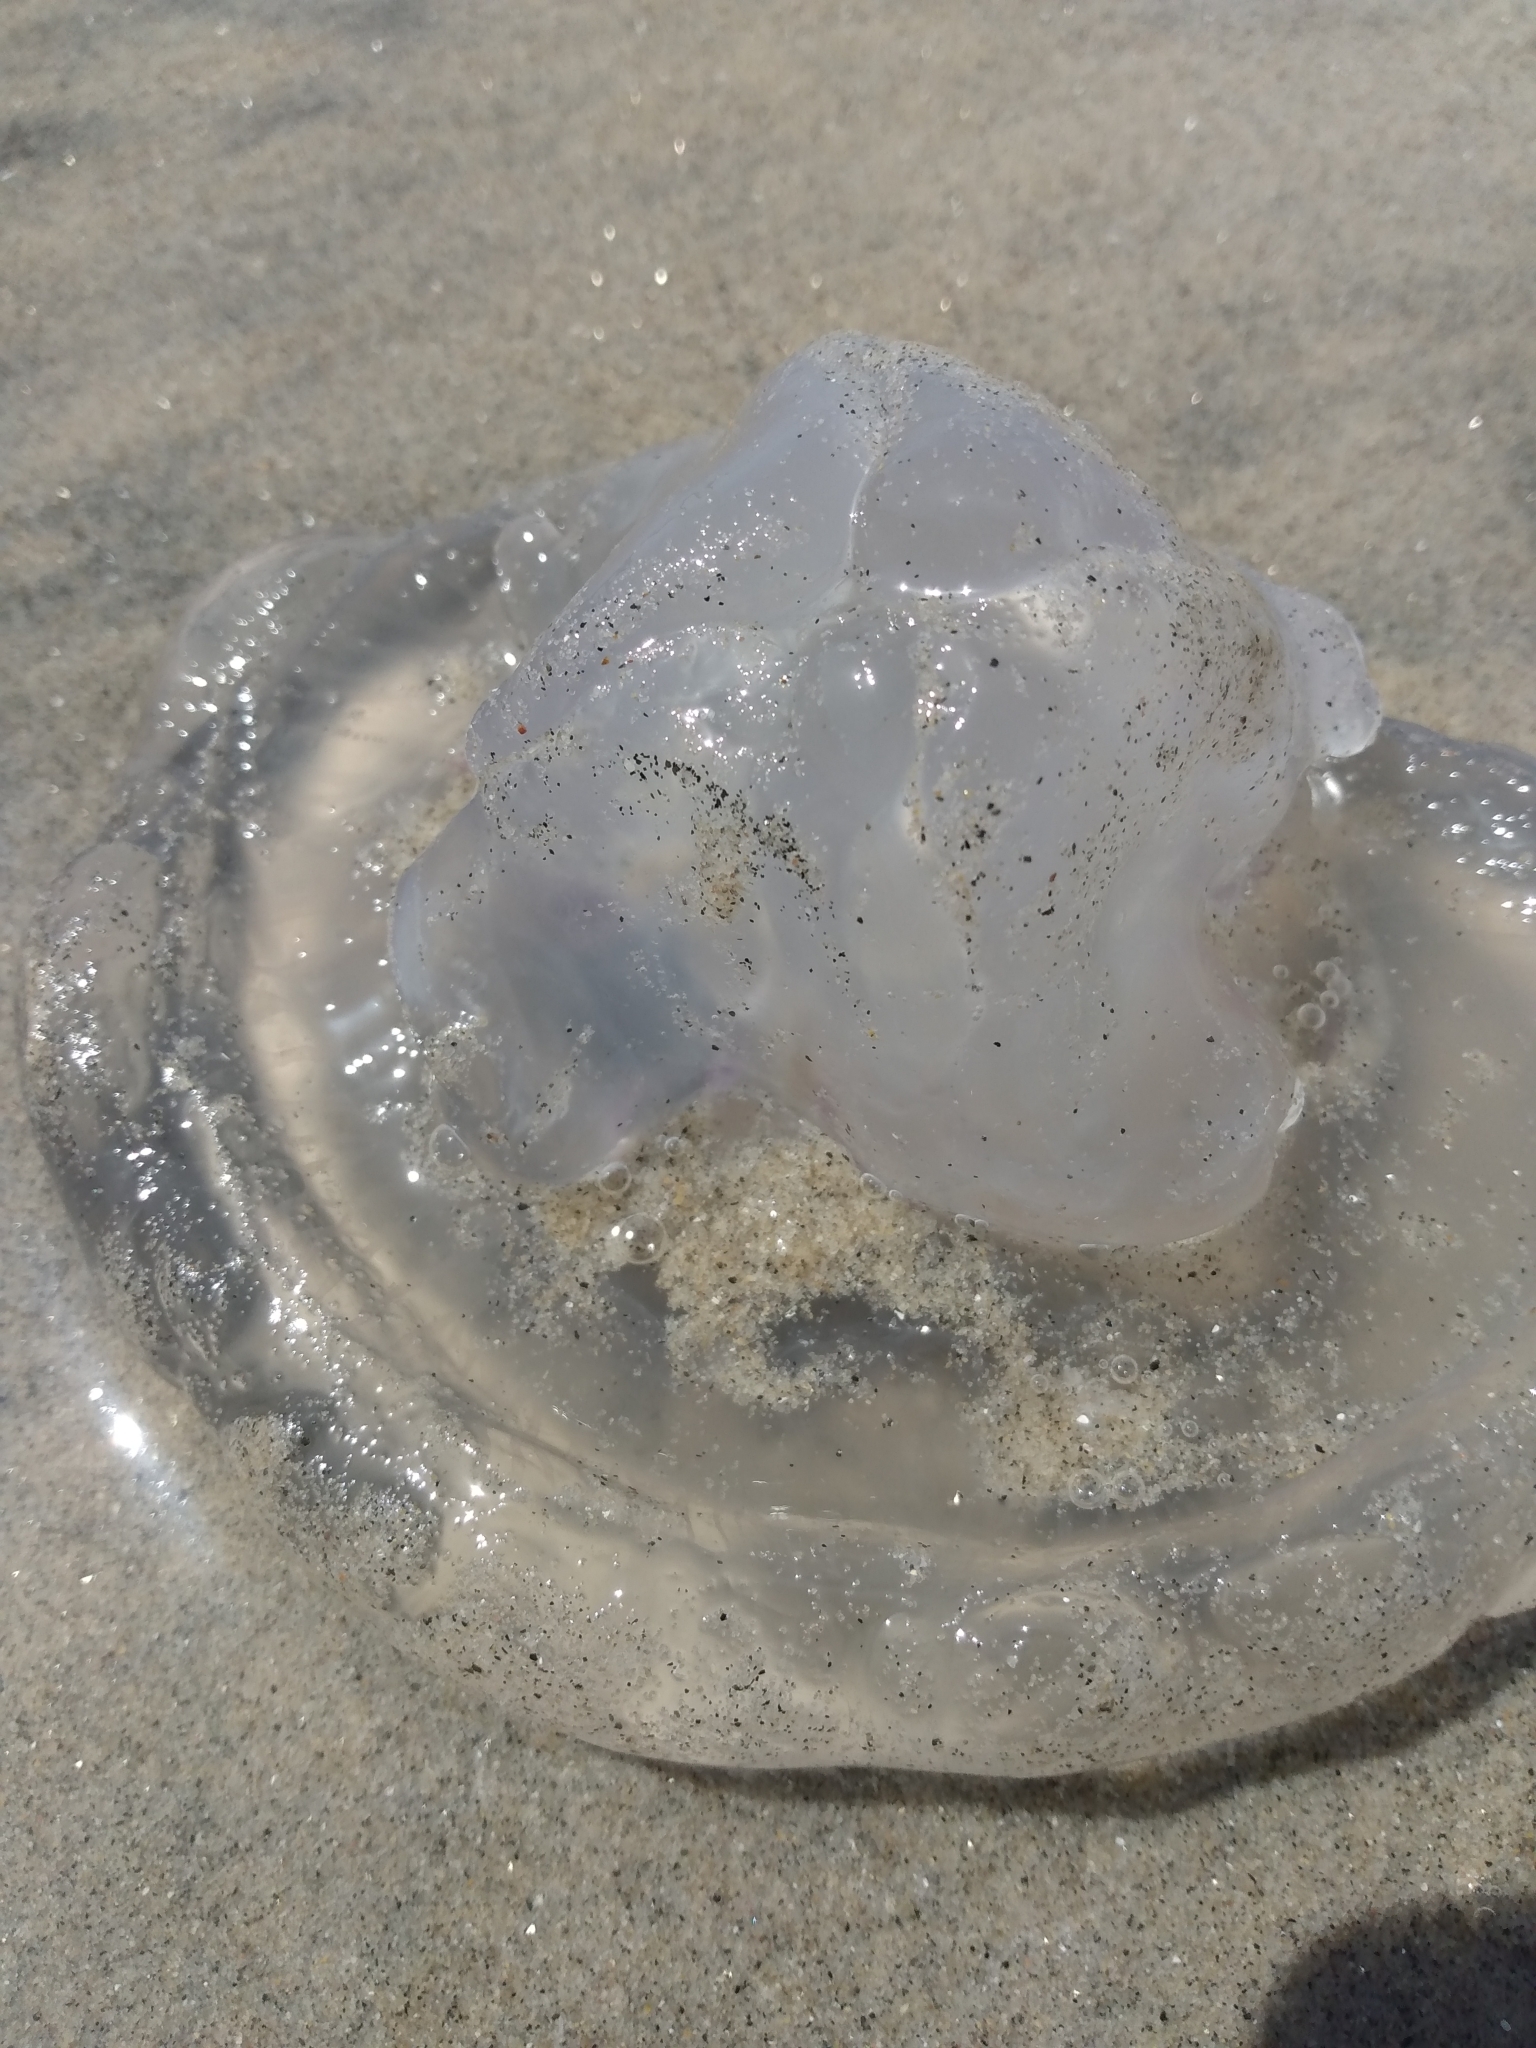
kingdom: Animalia
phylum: Cnidaria
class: Scyphozoa
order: Semaeostomeae
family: Ulmaridae
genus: Aurelia
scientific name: Aurelia labiata
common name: Pacific moon jelly
